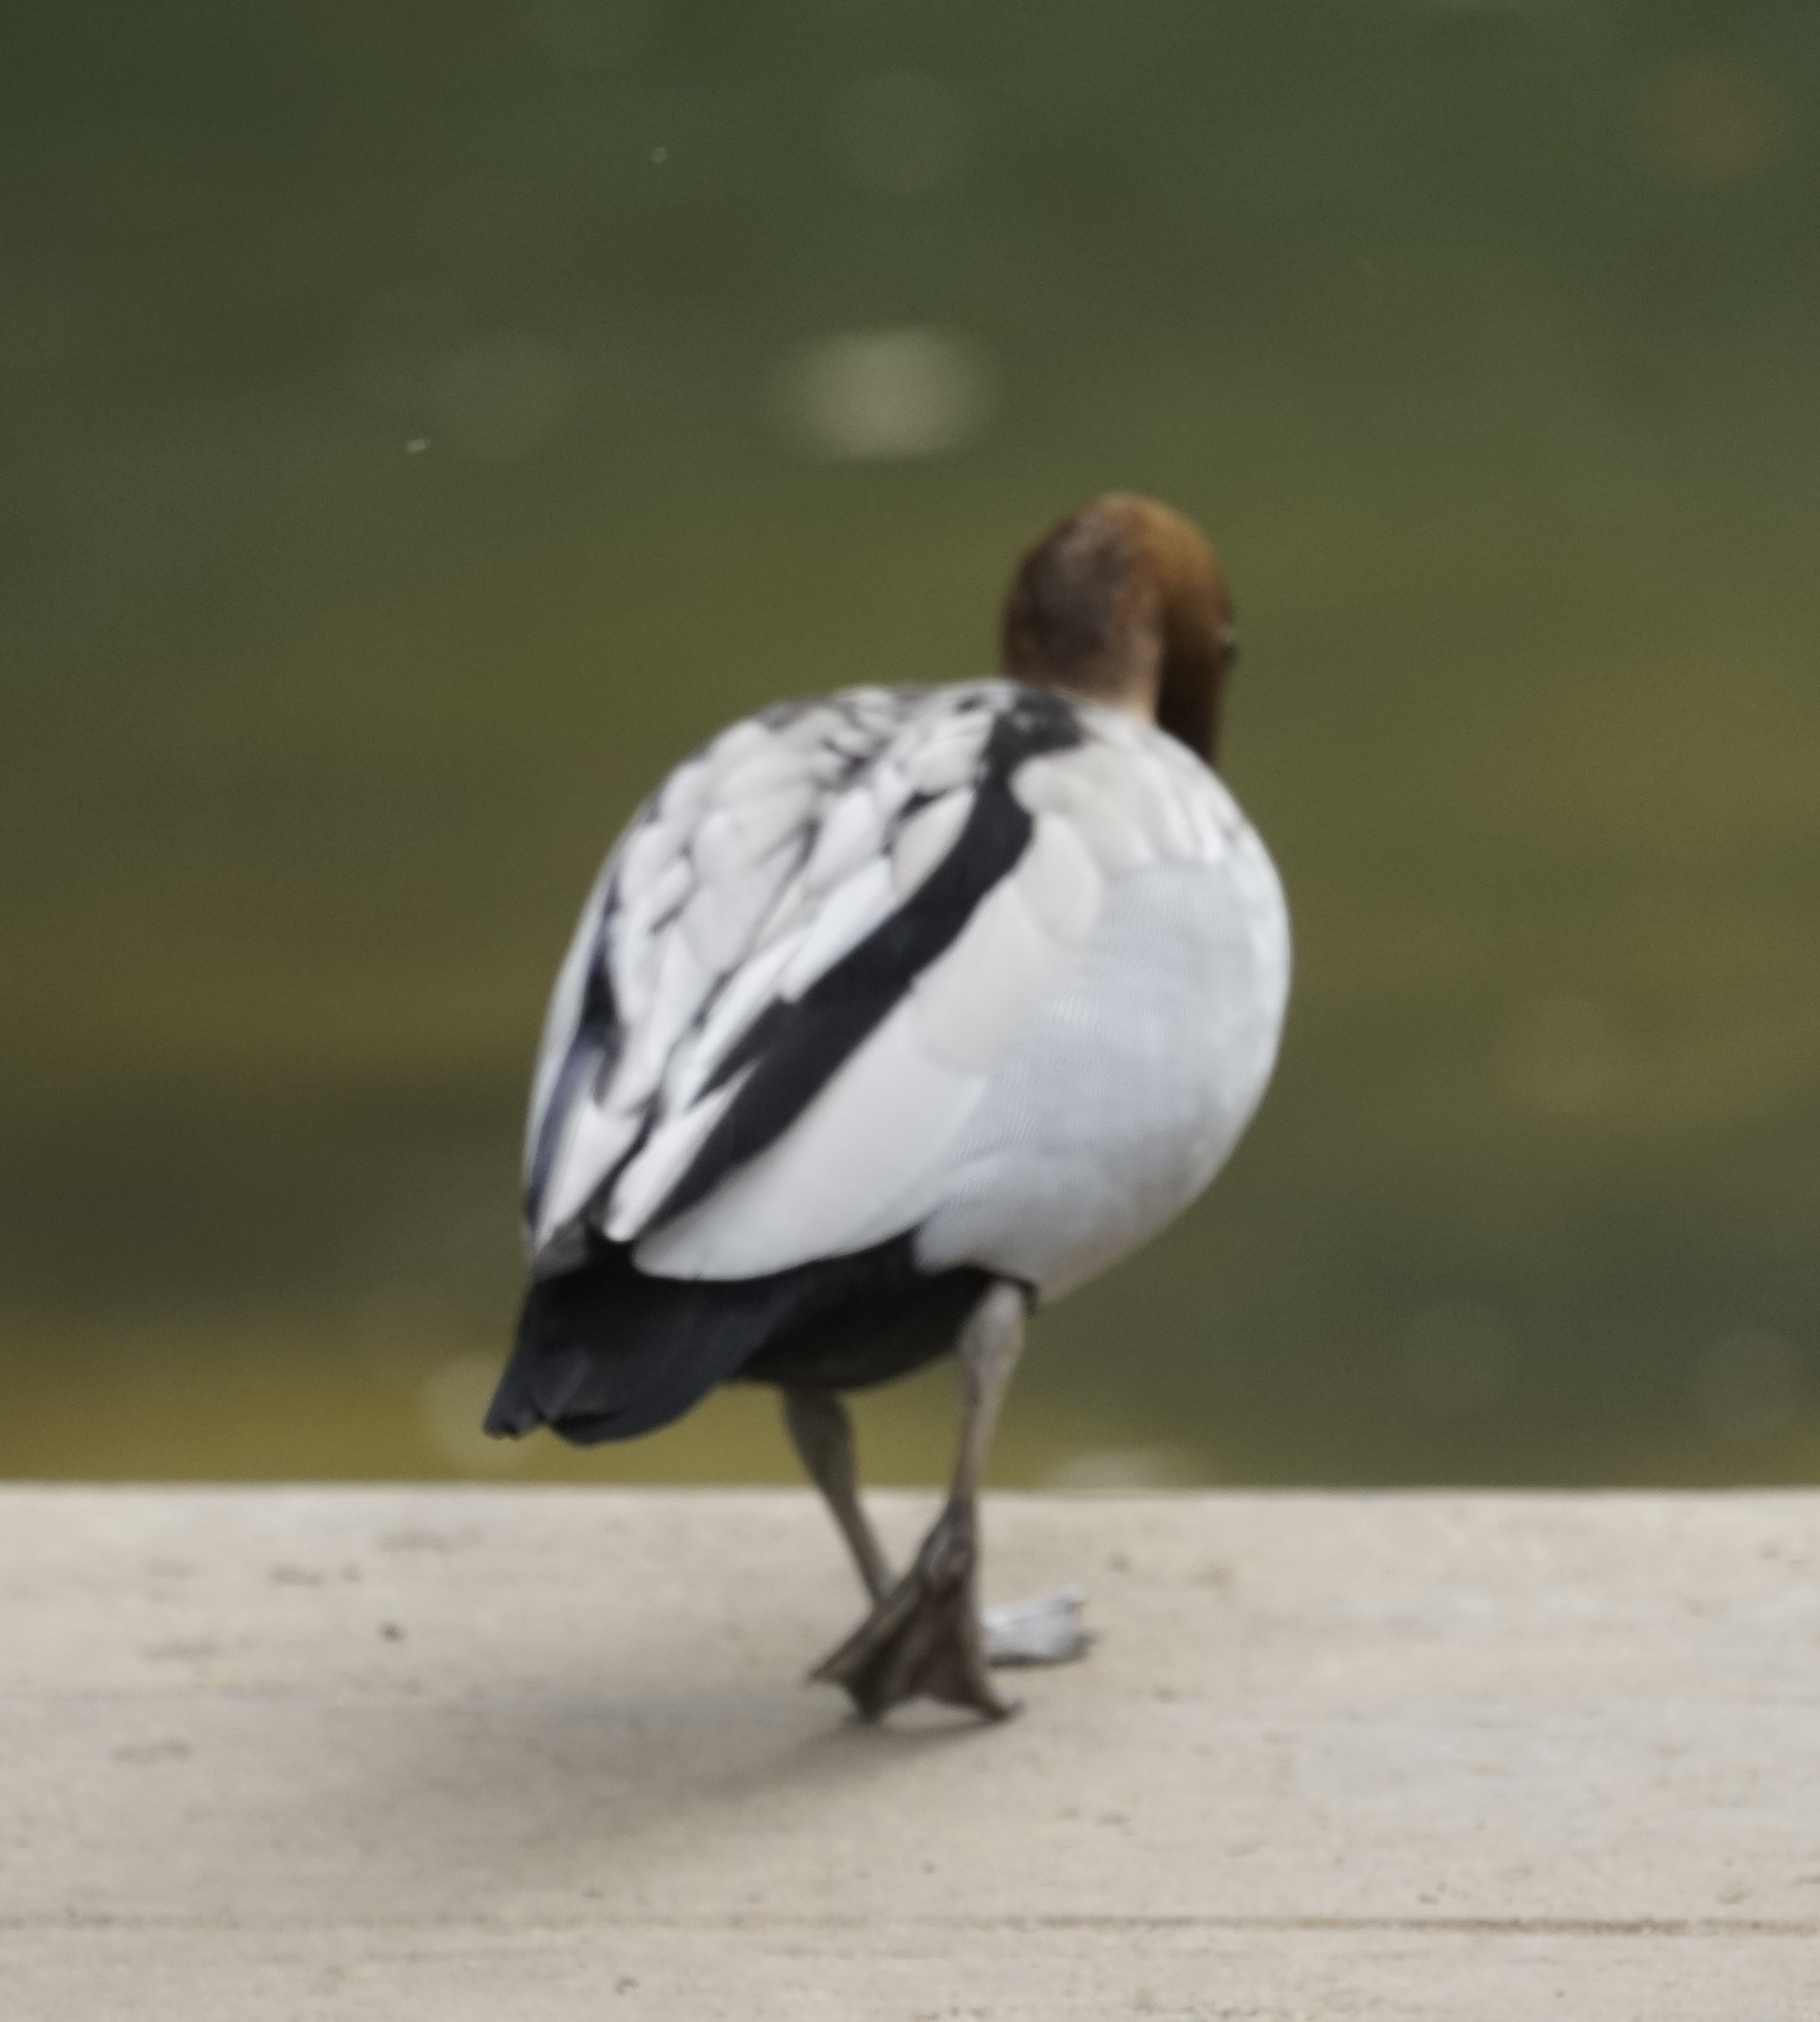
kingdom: Animalia
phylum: Chordata
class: Aves
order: Anseriformes
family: Anatidae
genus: Chenonetta
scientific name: Chenonetta jubata
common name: Maned duck
